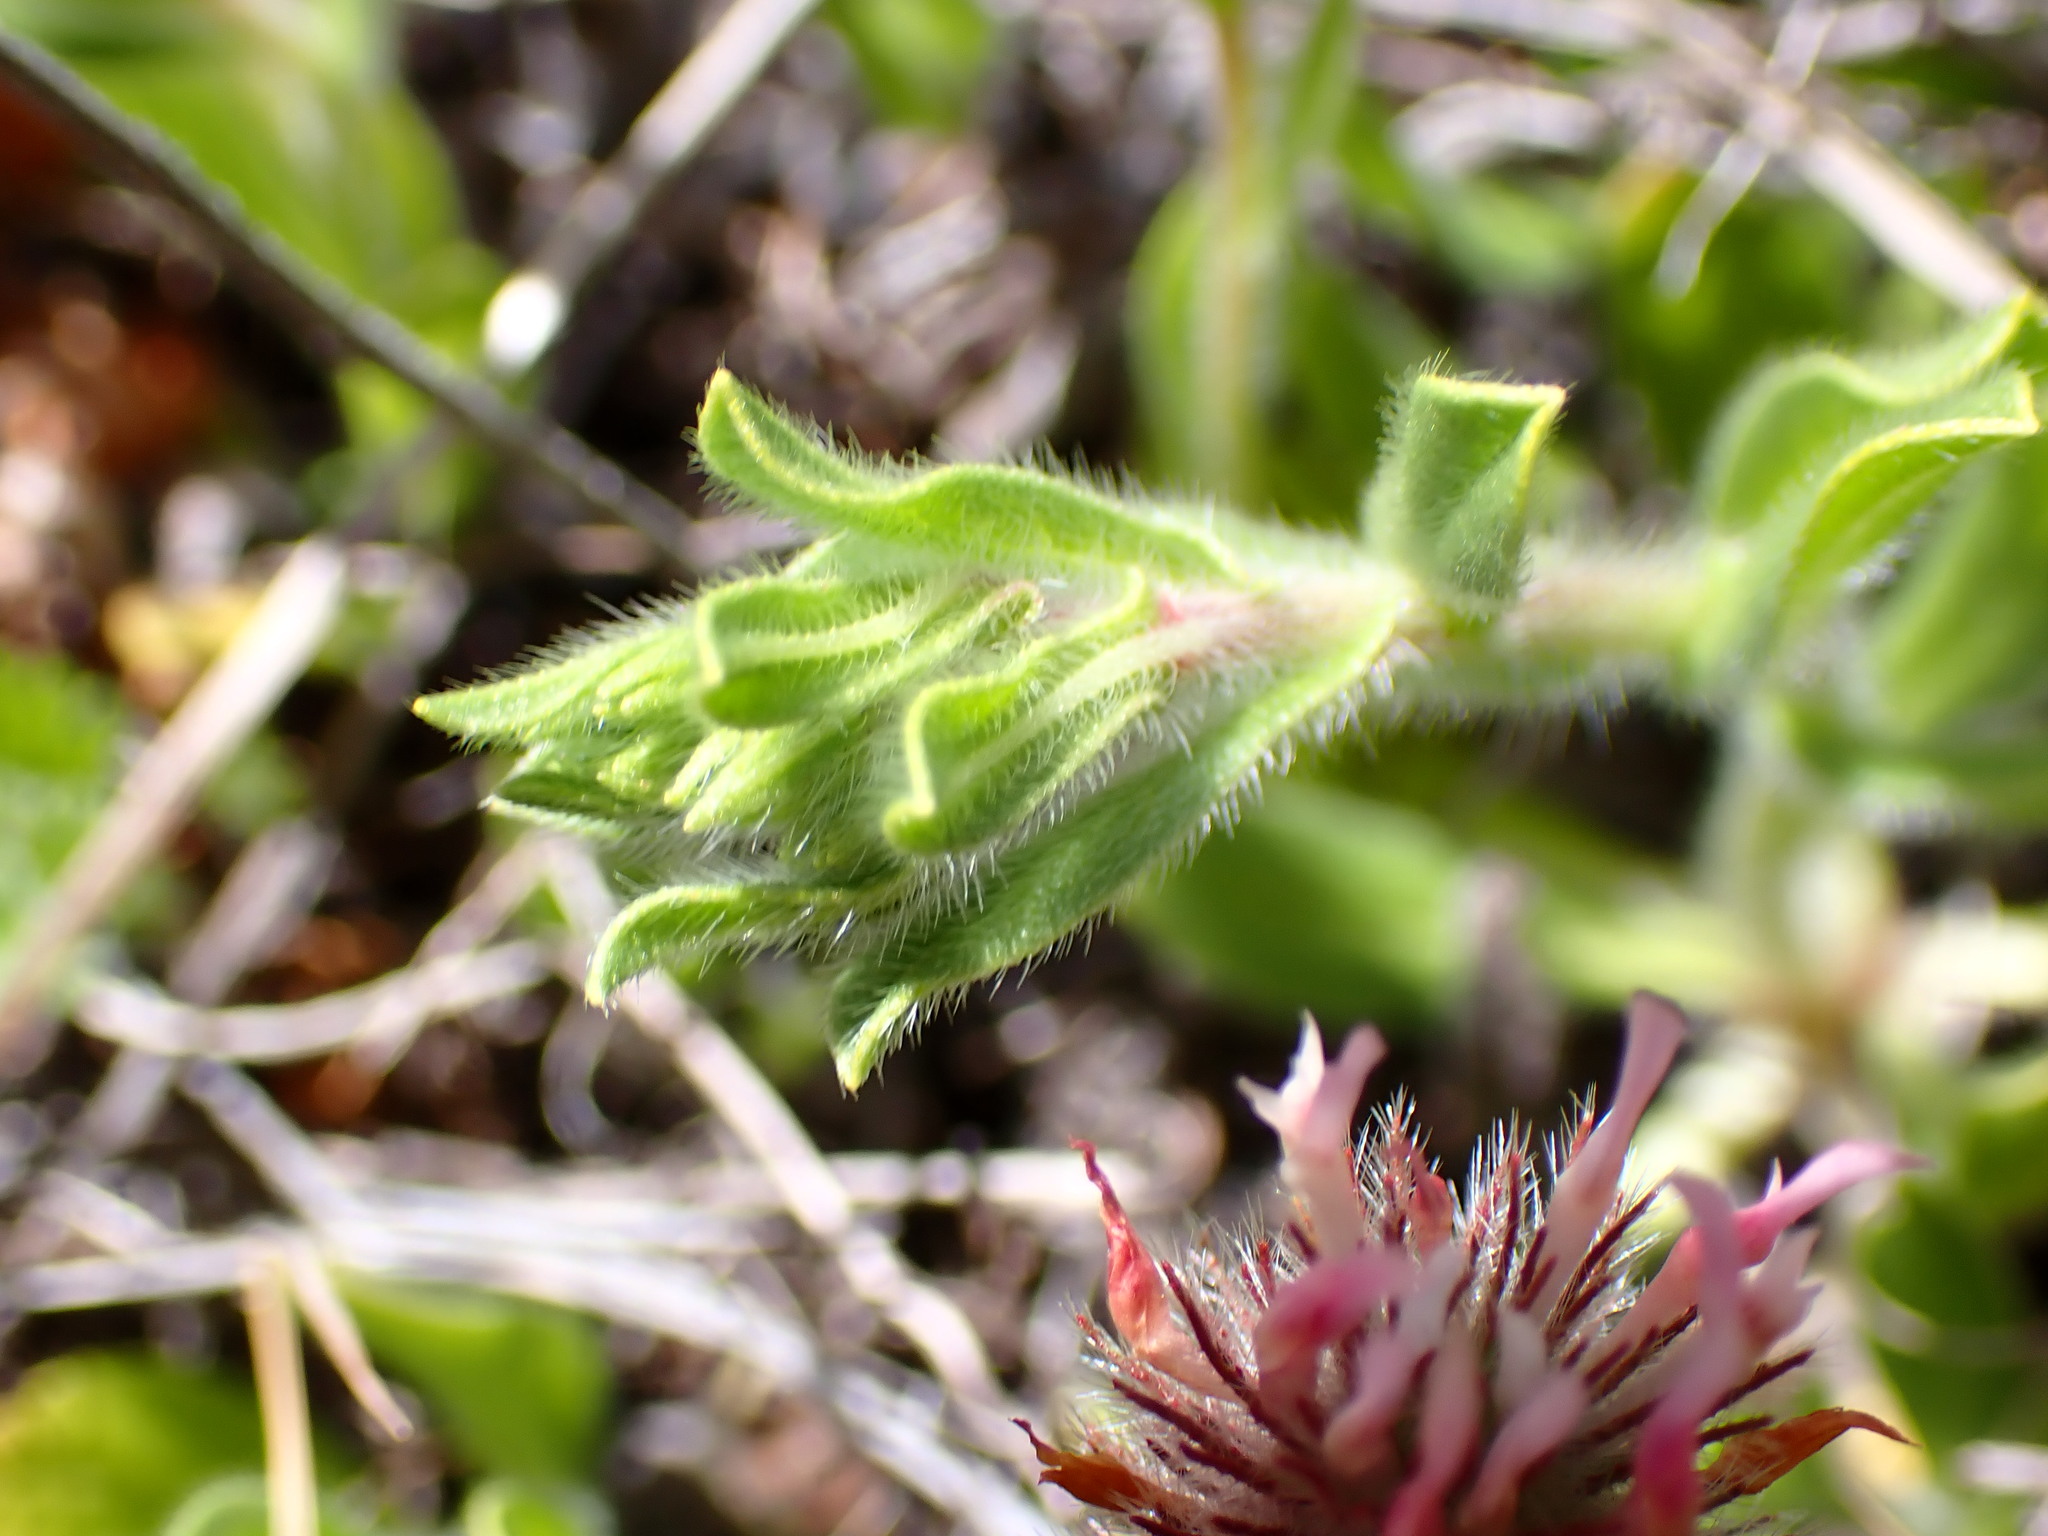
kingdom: Plantae
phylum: Tracheophyta
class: Magnoliopsida
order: Boraginales
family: Boraginaceae
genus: Echium
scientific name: Echium plantagineum
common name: Purple viper's-bugloss
